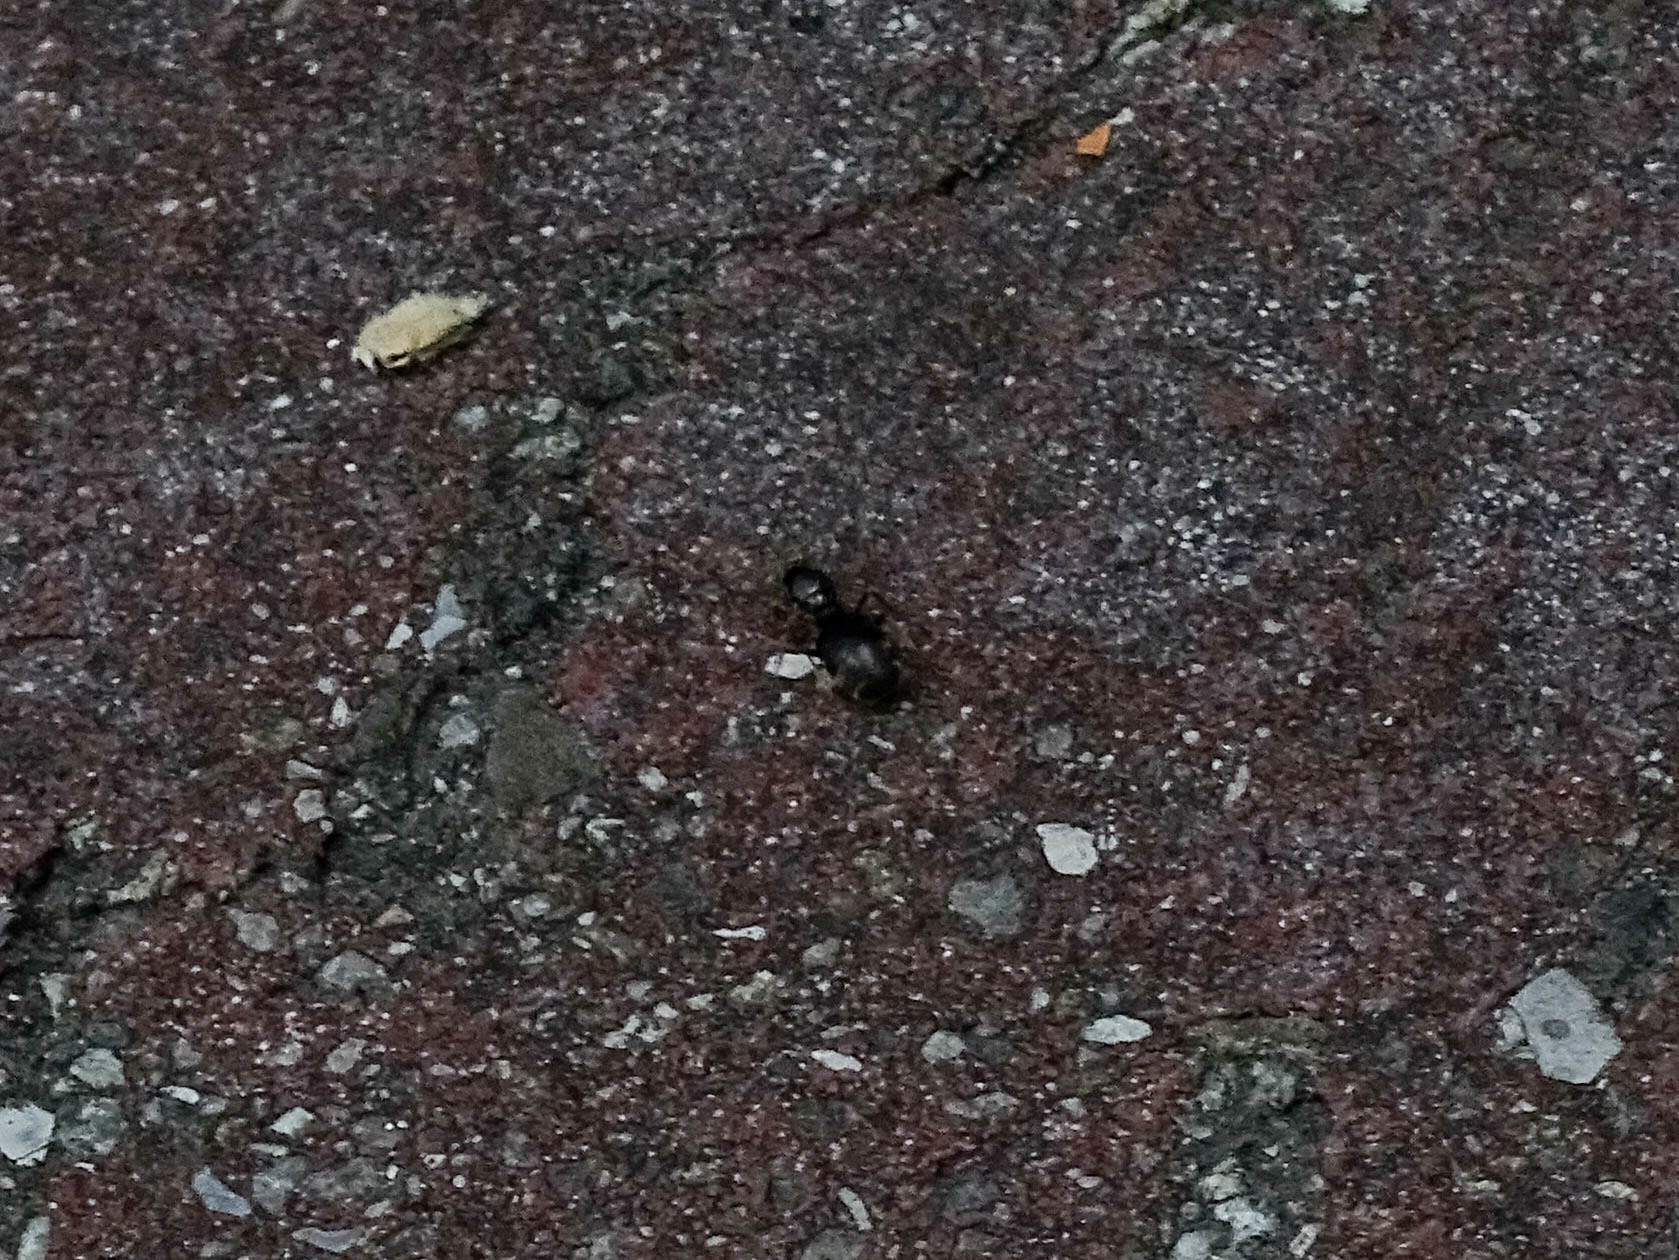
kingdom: Animalia
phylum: Arthropoda
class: Insecta
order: Hymenoptera
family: Formicidae
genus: Lasius
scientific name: Lasius
